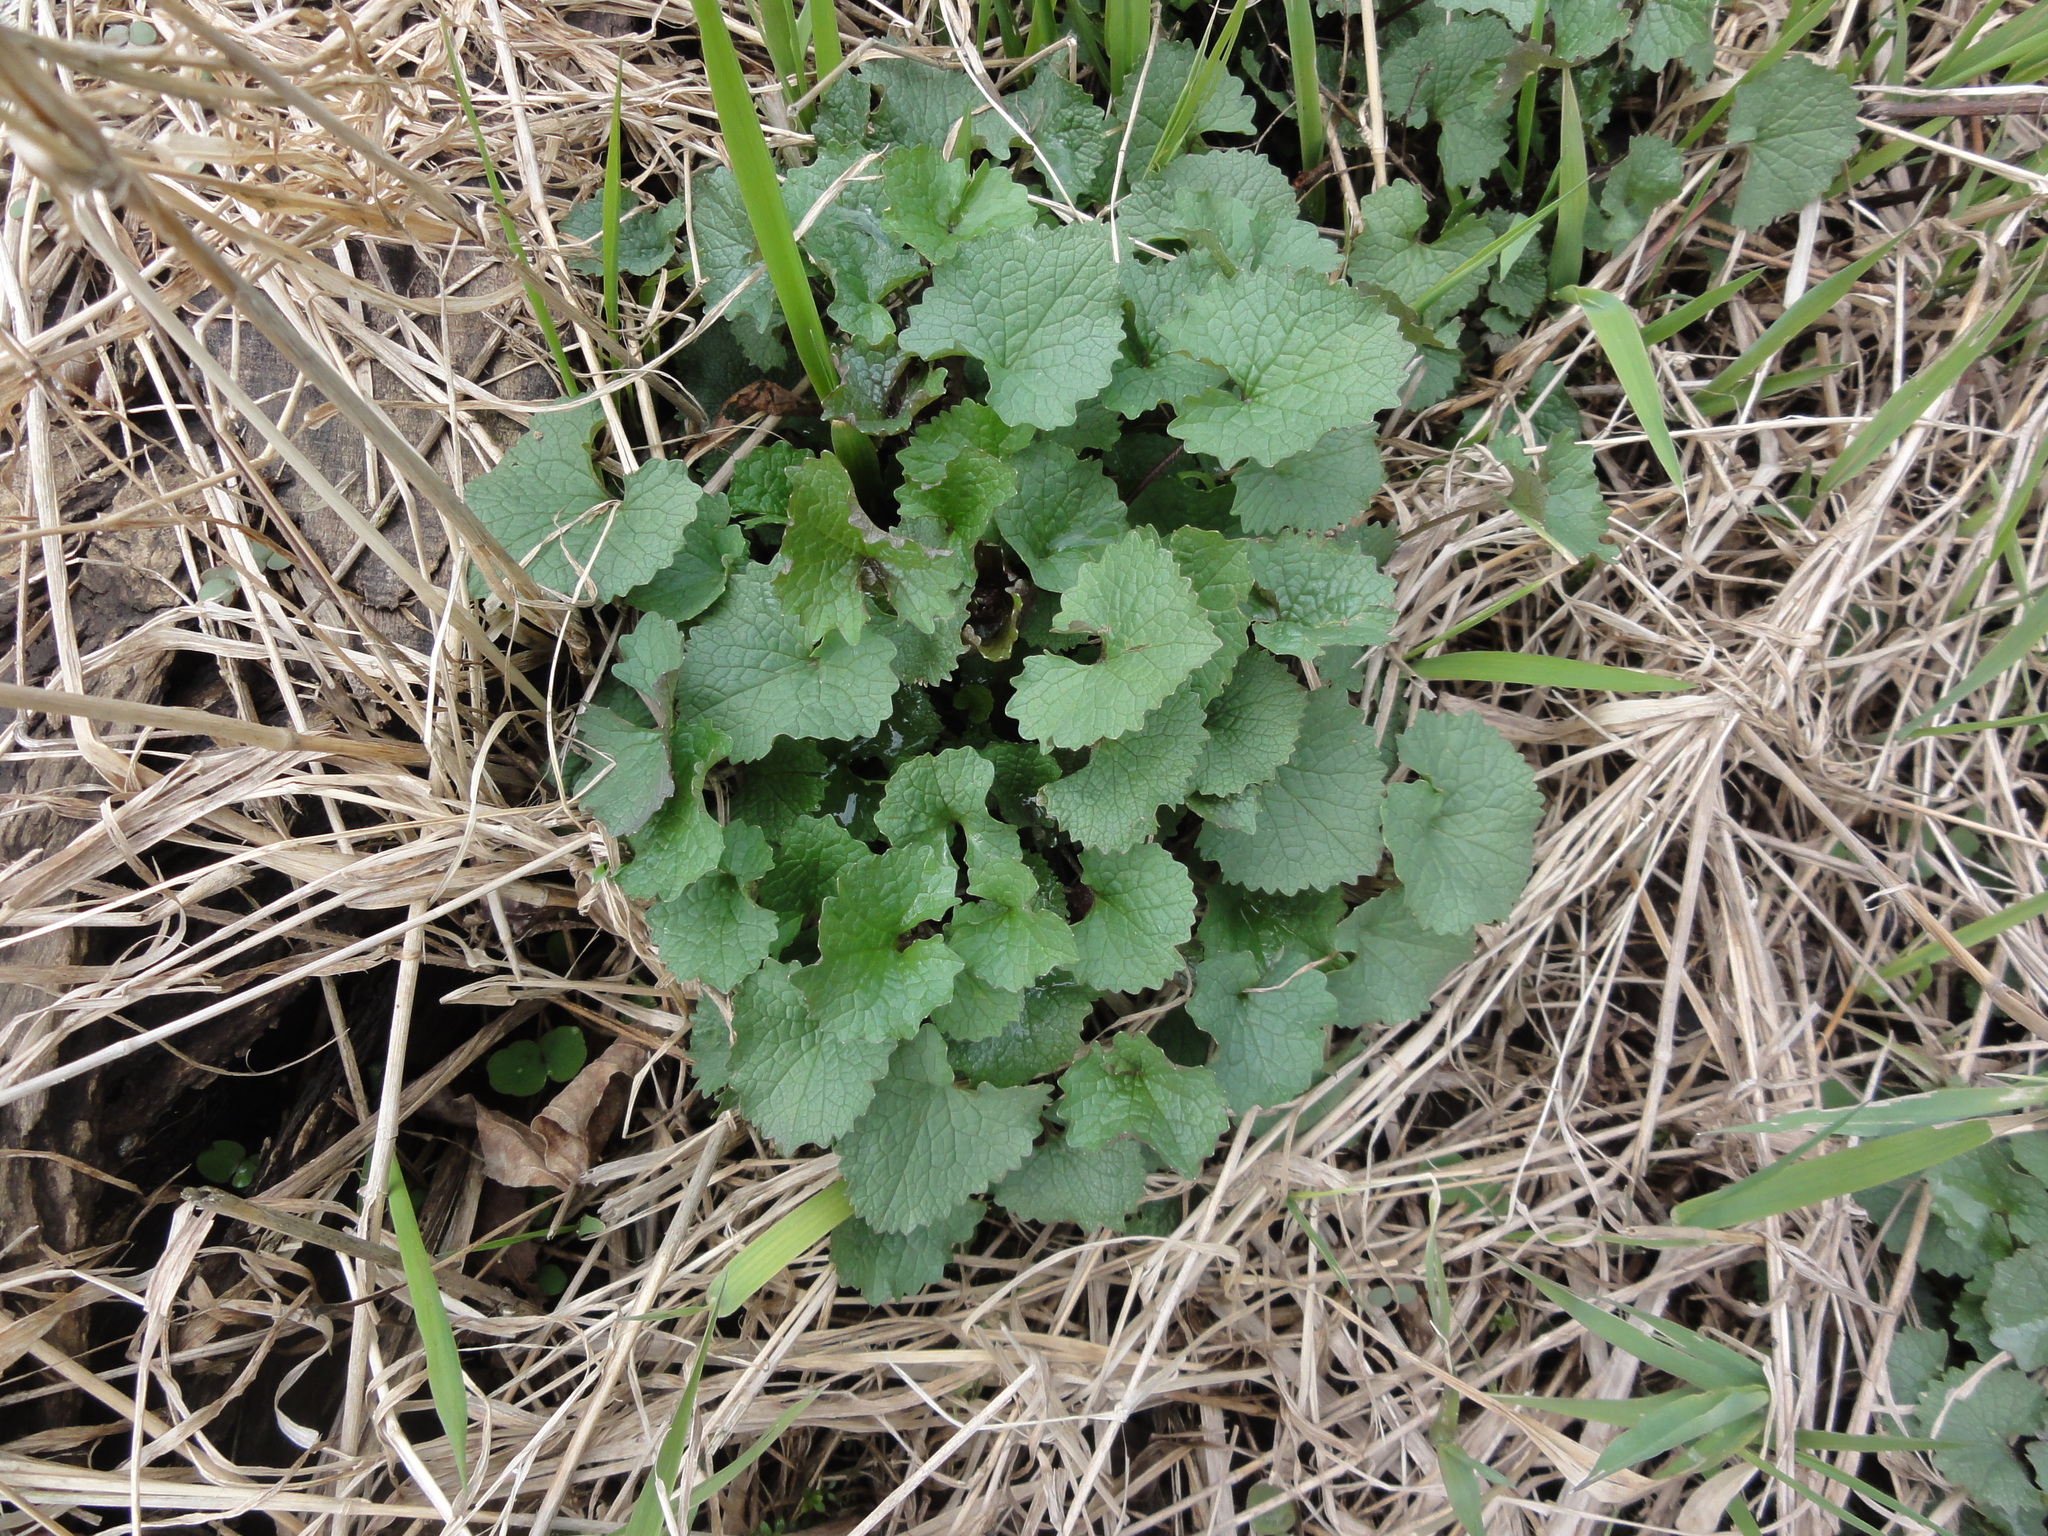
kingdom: Plantae
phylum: Tracheophyta
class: Magnoliopsida
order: Brassicales
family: Brassicaceae
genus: Alliaria
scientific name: Alliaria petiolata
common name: Garlic mustard
